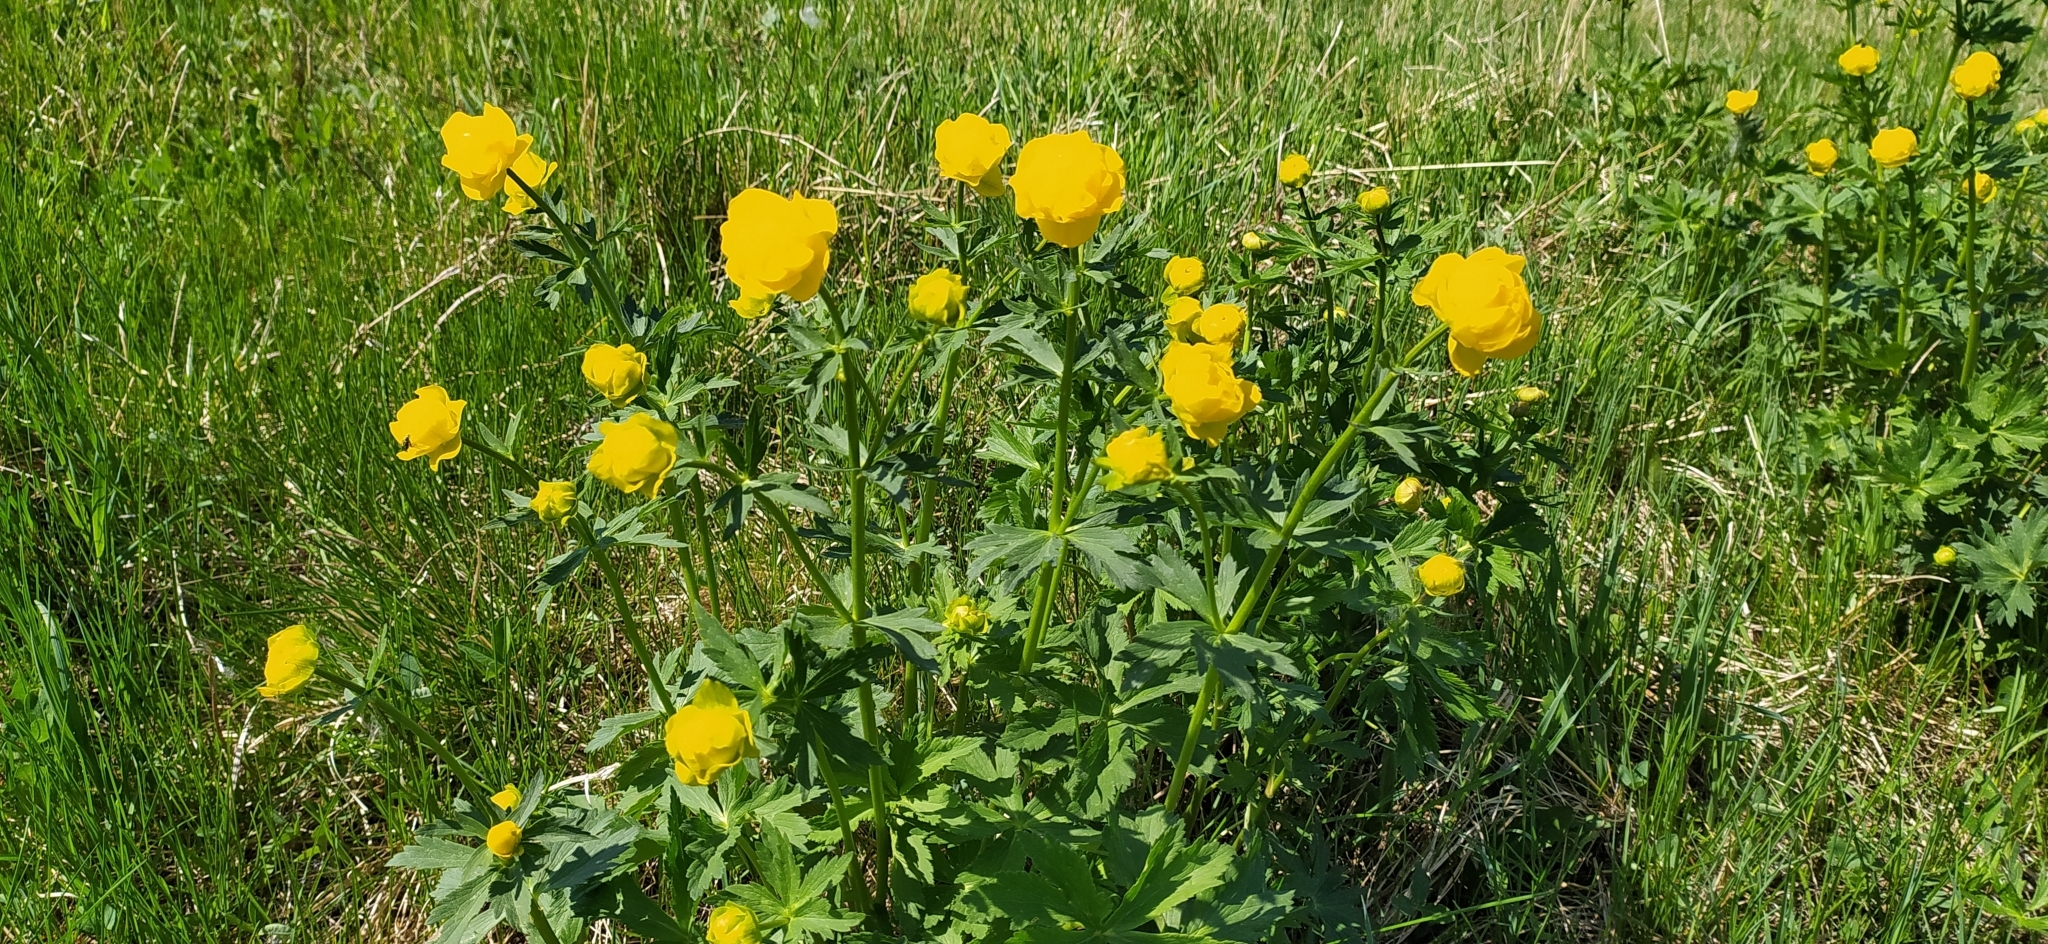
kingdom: Plantae
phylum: Tracheophyta
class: Magnoliopsida
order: Ranunculales
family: Ranunculaceae
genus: Trollius
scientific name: Trollius europaeus
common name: European globeflower
